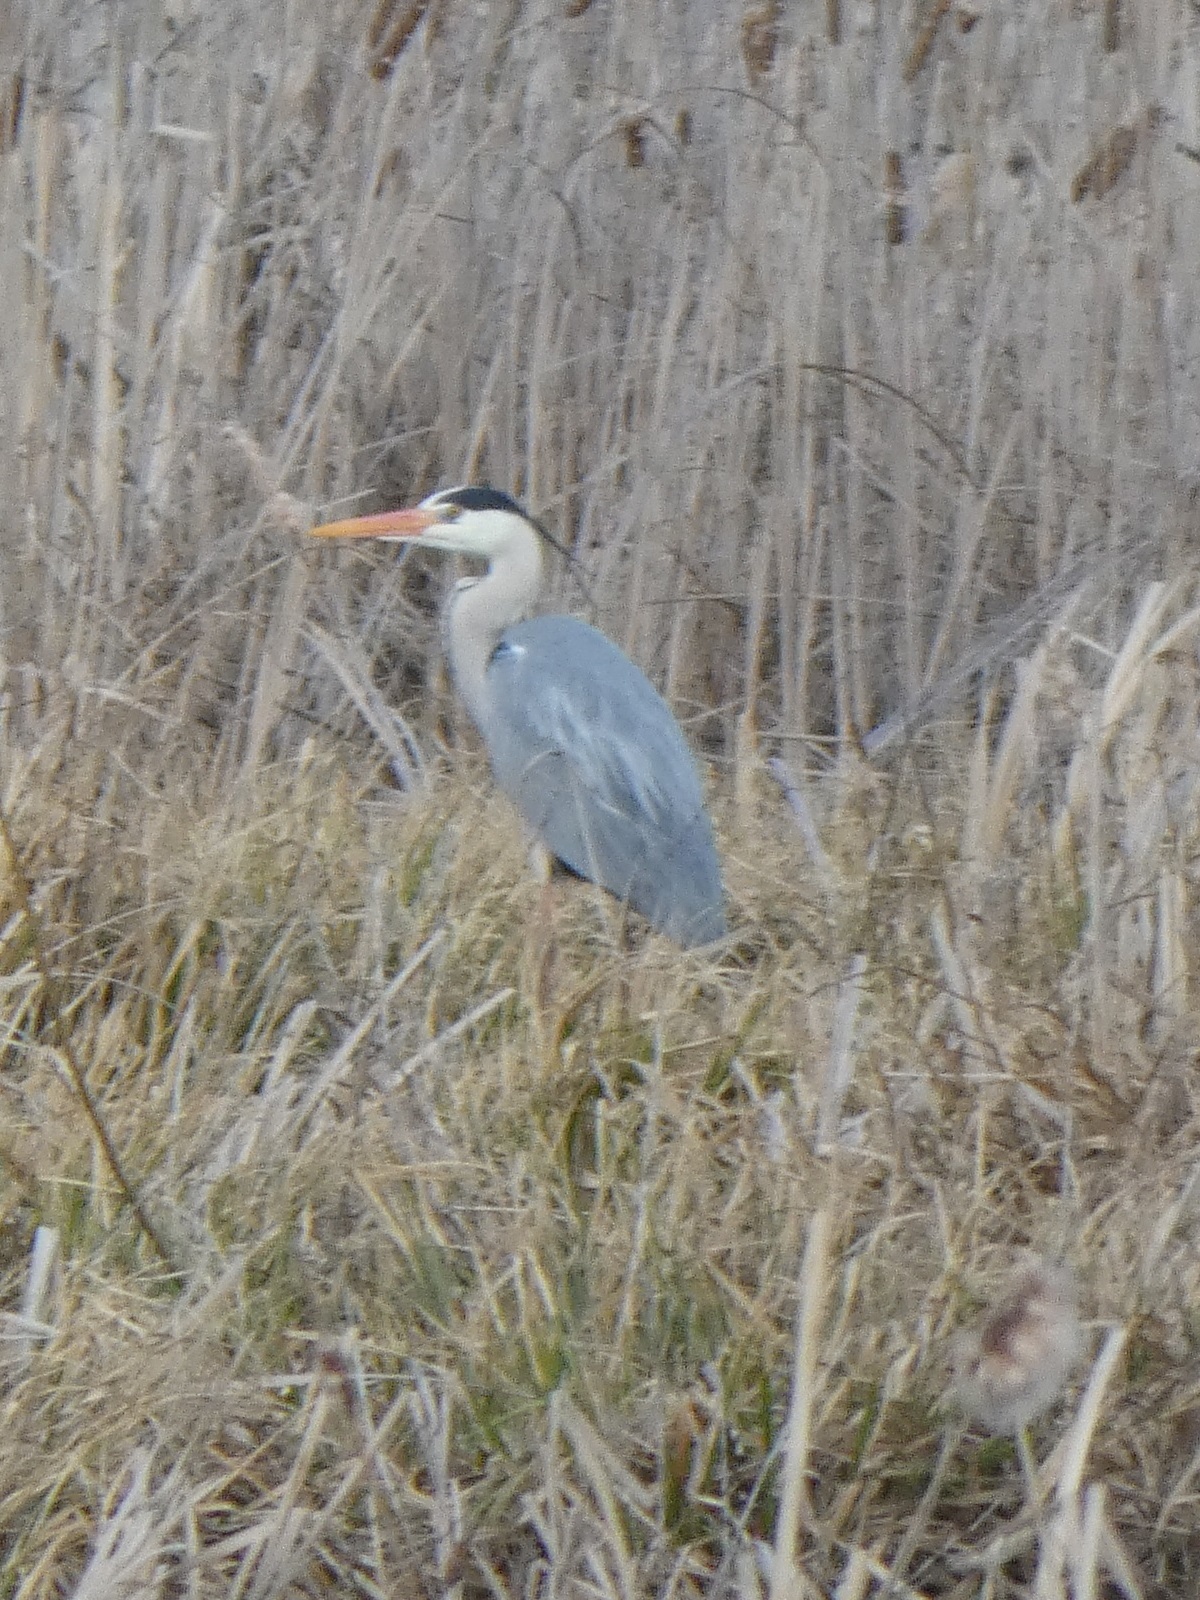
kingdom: Animalia
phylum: Chordata
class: Aves
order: Pelecaniformes
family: Ardeidae
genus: Ardea
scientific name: Ardea cinerea
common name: Grey heron
